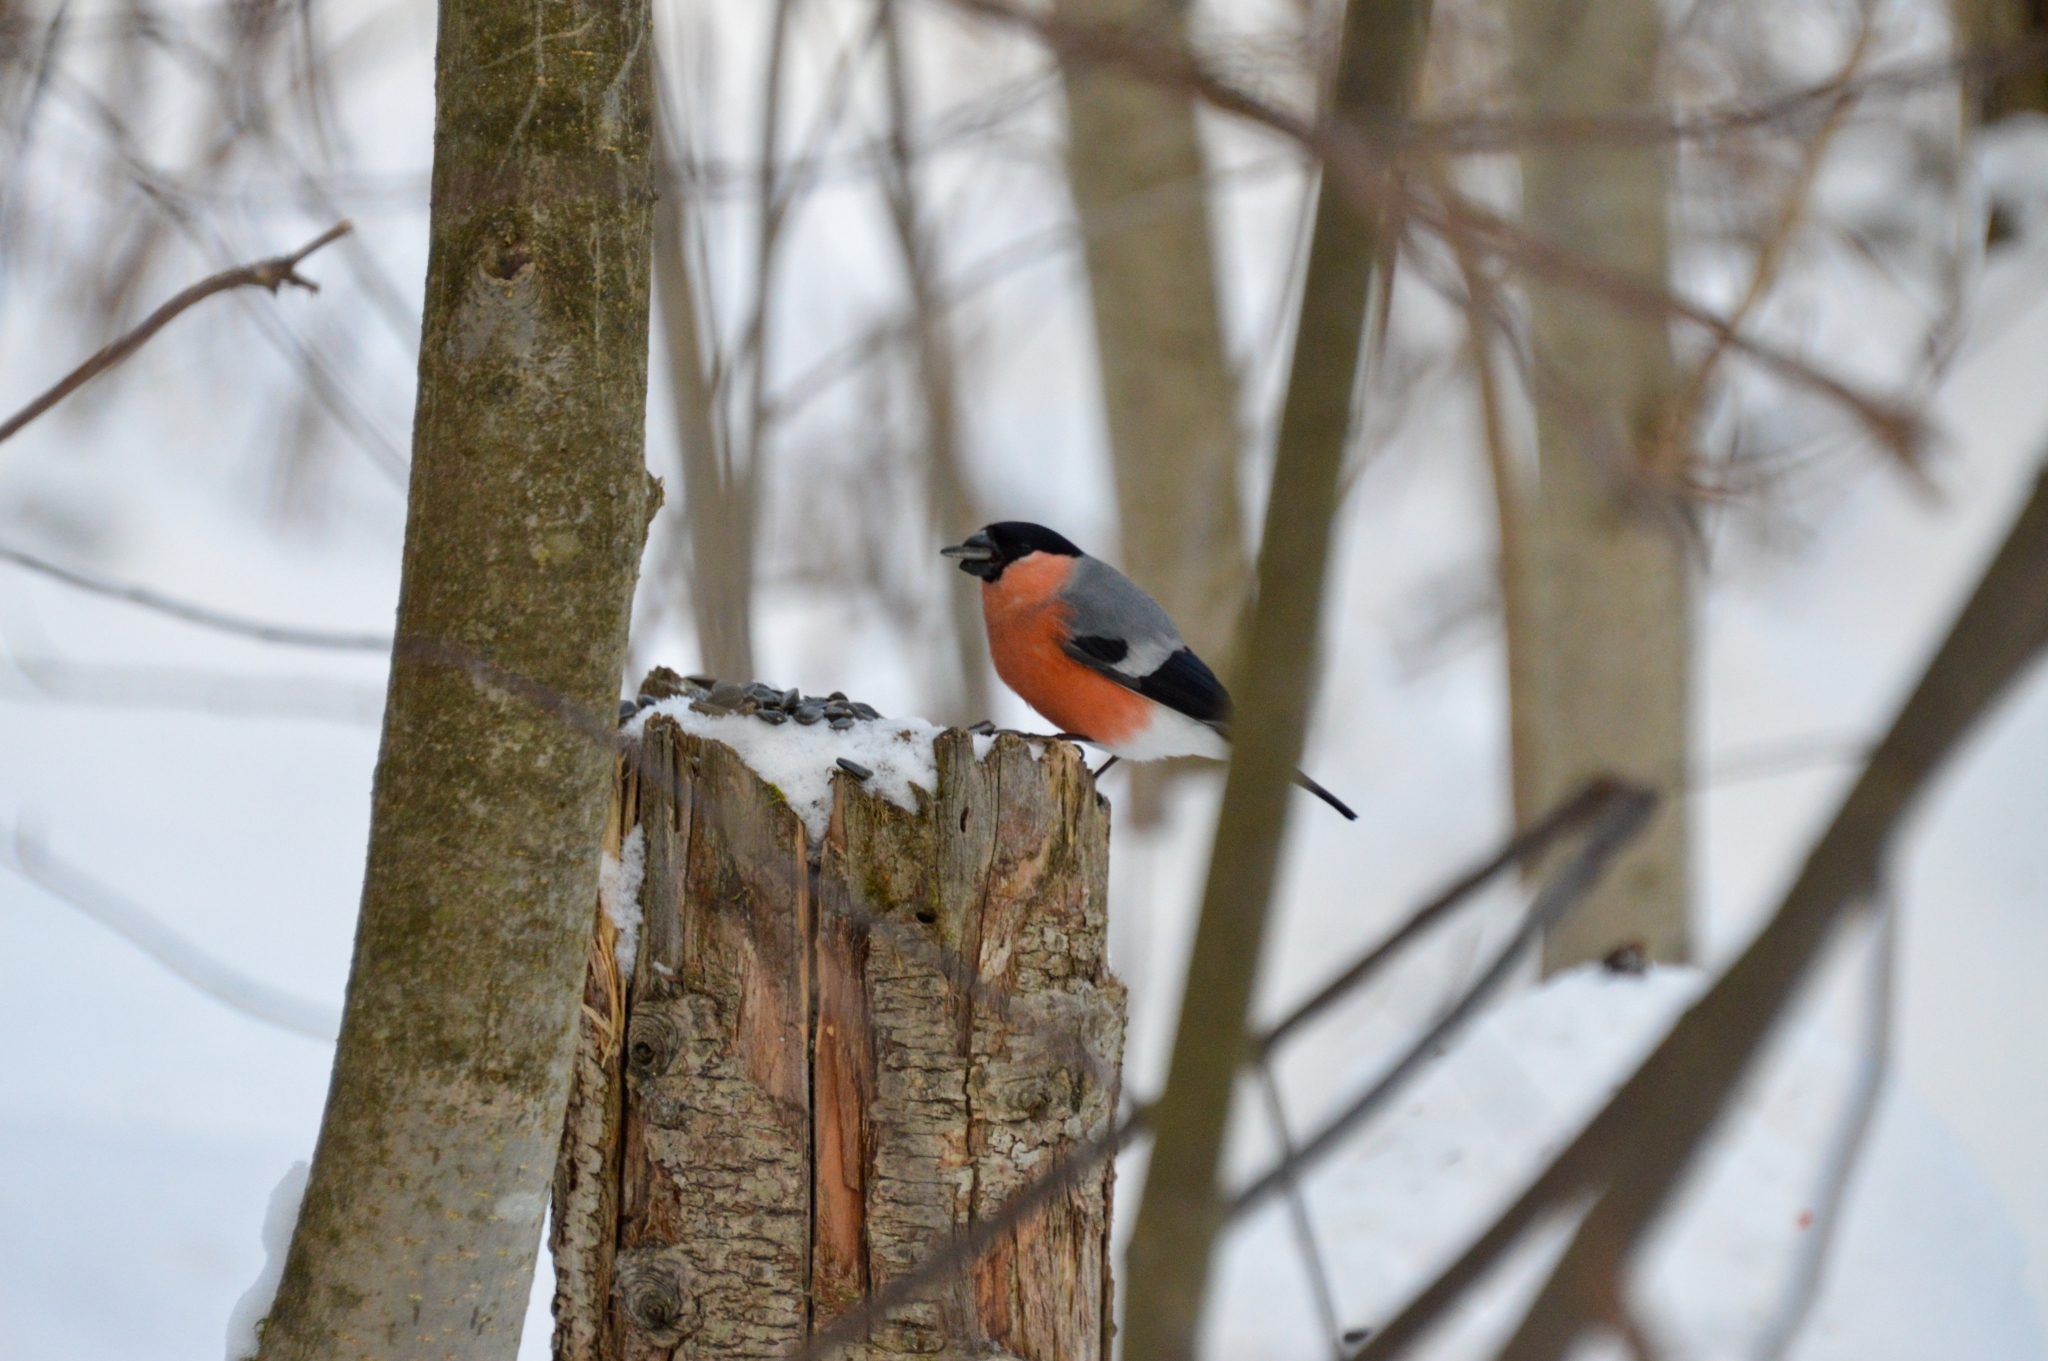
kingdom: Animalia
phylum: Chordata
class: Aves
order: Passeriformes
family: Fringillidae
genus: Pyrrhula
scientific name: Pyrrhula pyrrhula
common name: Eurasian bullfinch
